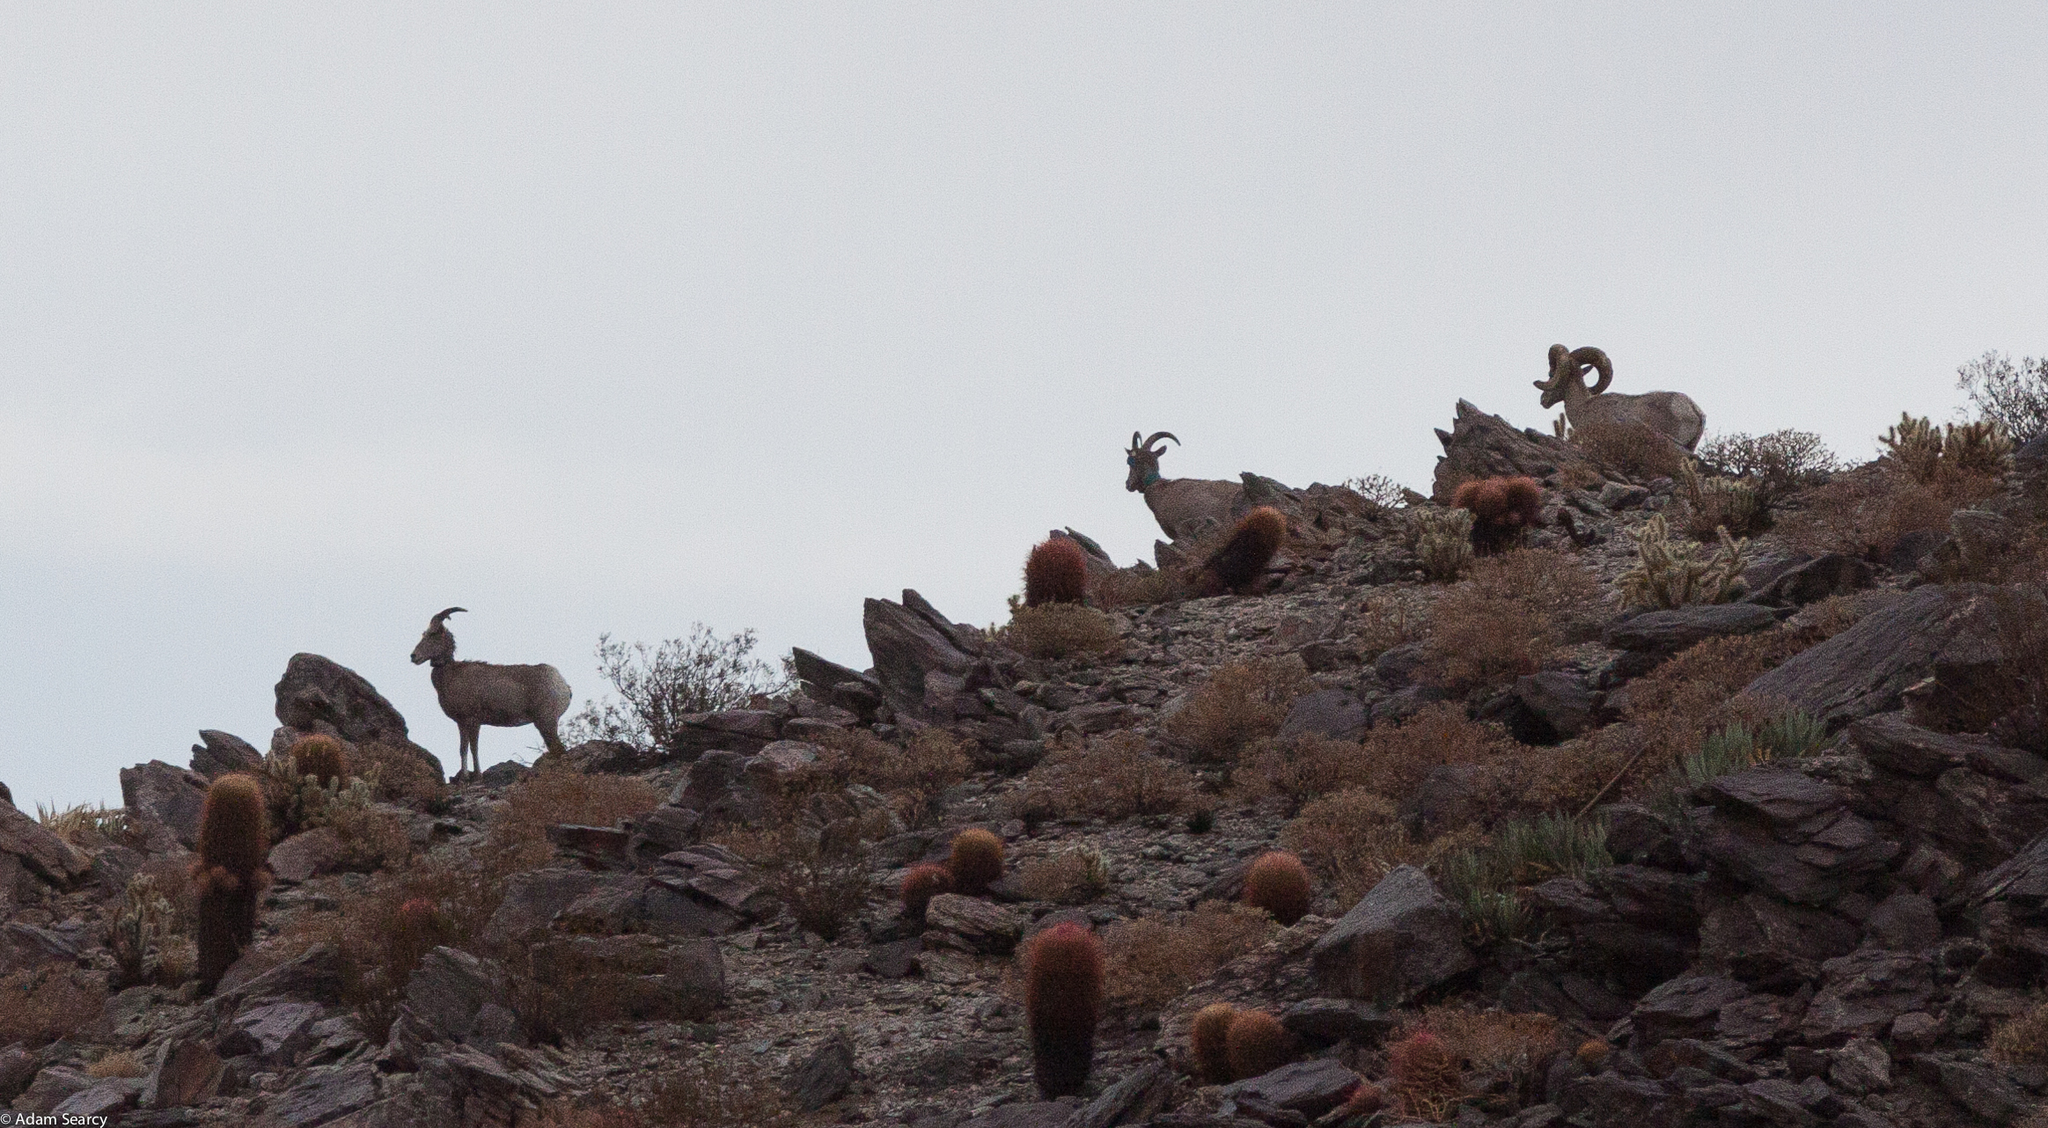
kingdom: Animalia
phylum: Chordata
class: Mammalia
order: Artiodactyla
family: Bovidae
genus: Ovis
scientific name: Ovis canadensis
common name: Bighorn sheep
